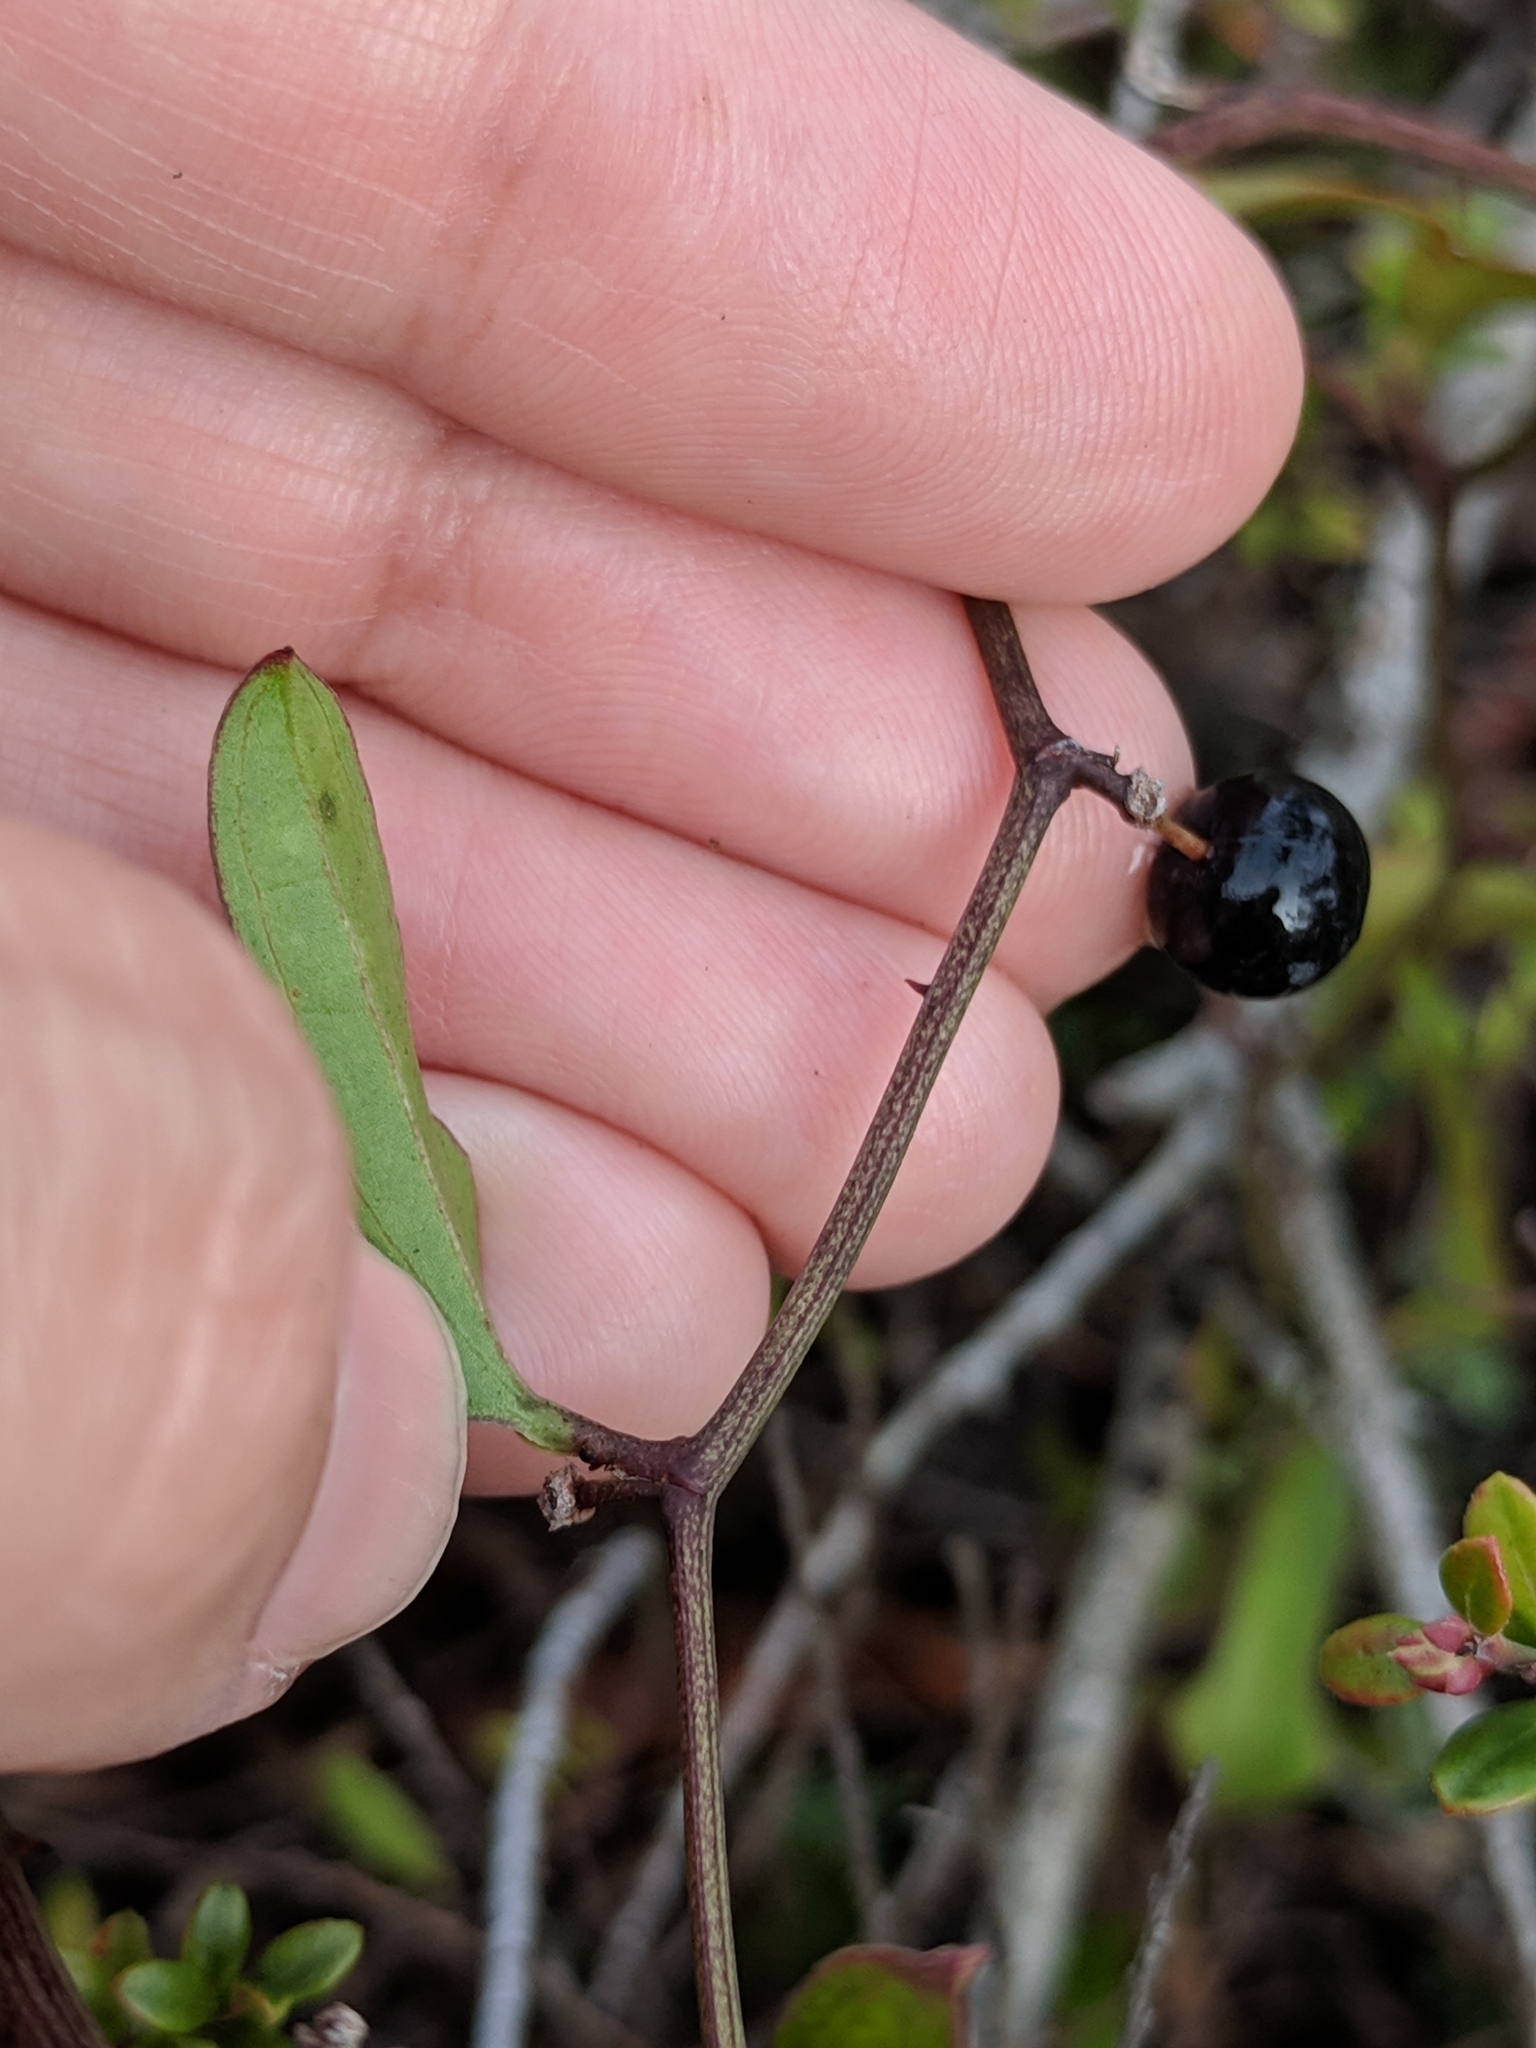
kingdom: Plantae
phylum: Tracheophyta
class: Liliopsida
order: Liliales
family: Smilacaceae
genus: Smilax
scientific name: Smilax auriculata
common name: Wild bamboo
